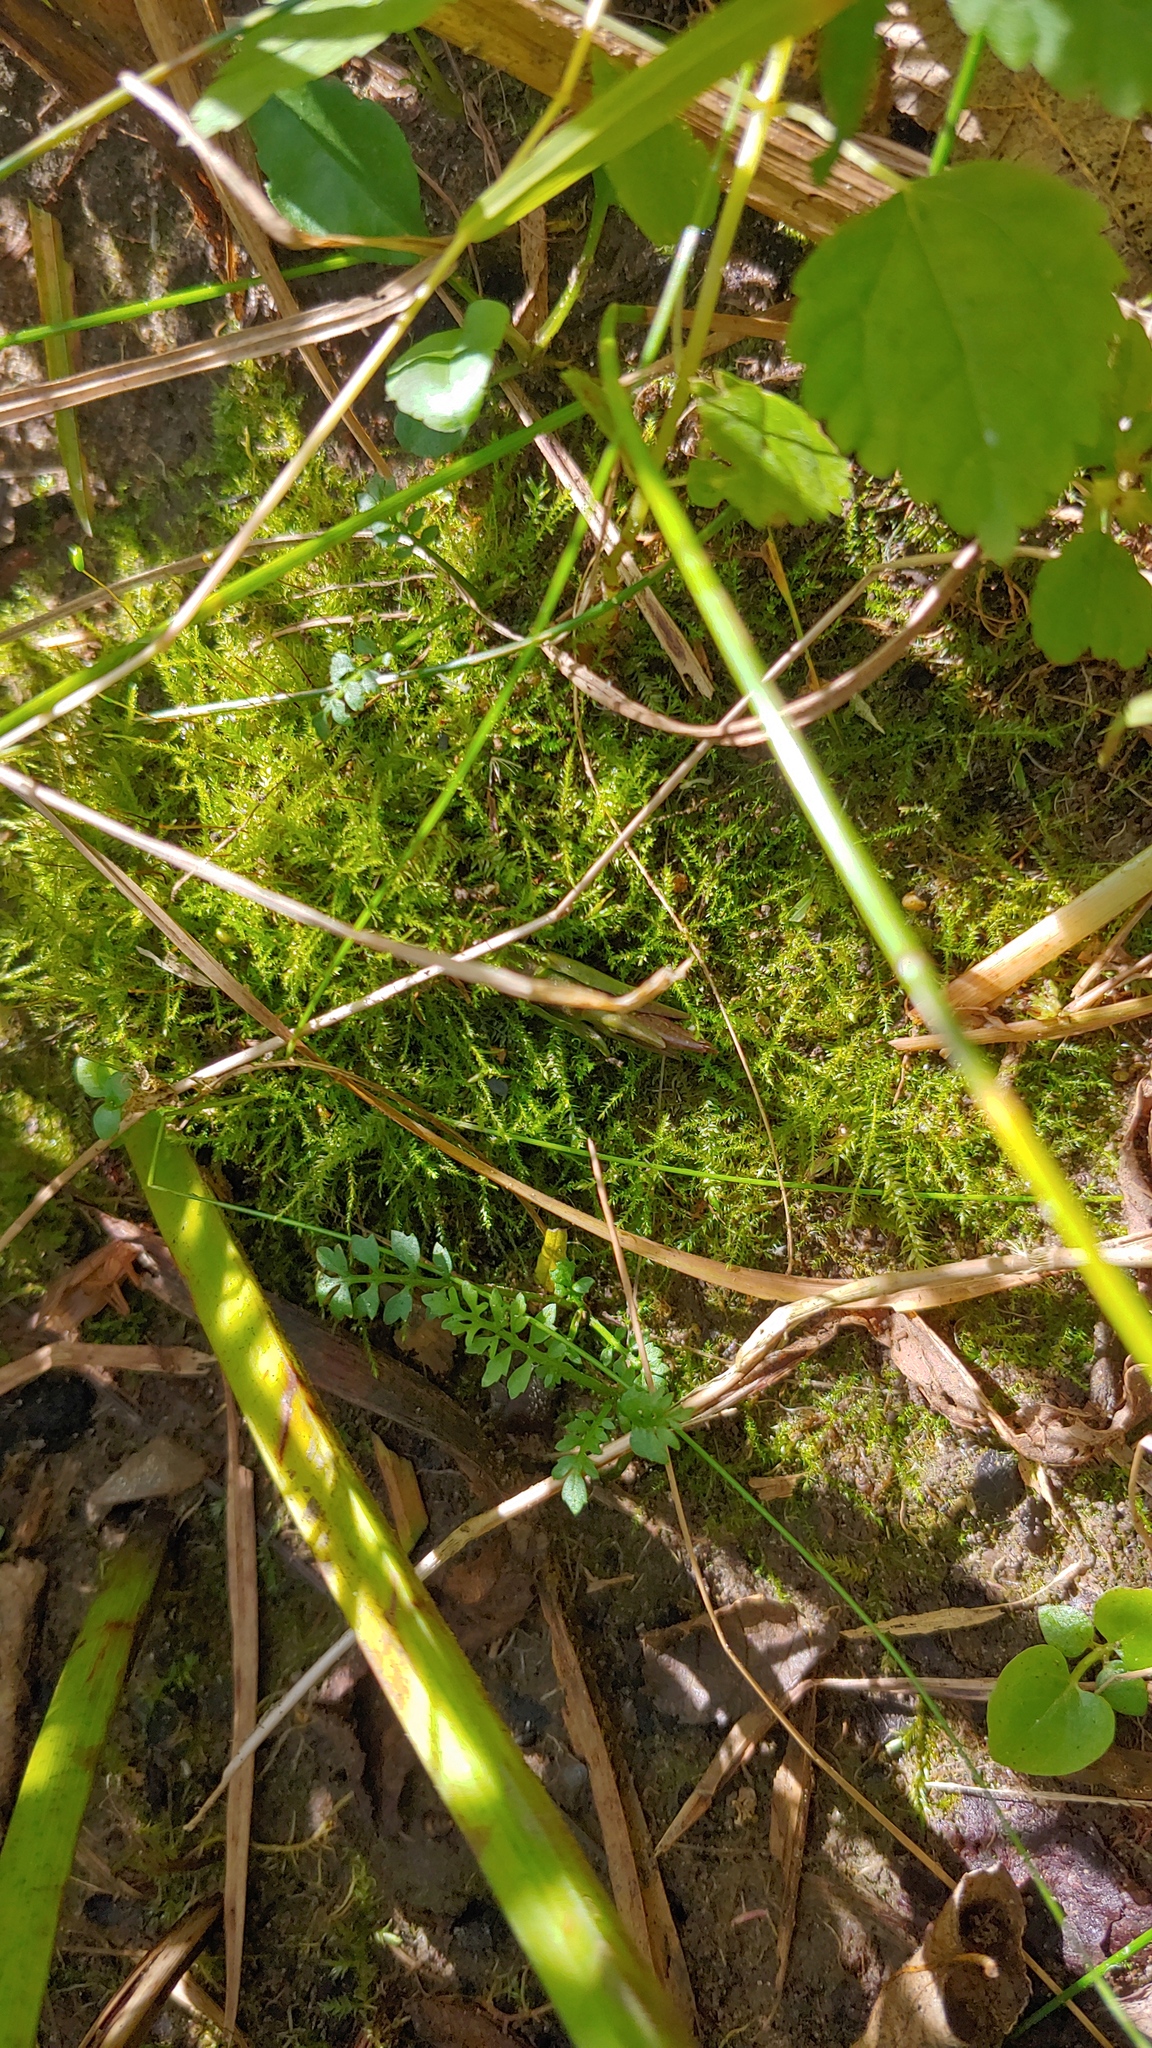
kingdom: Plantae
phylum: Tracheophyta
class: Magnoliopsida
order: Brassicales
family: Brassicaceae
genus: Cardamine
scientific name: Cardamine pensylvanica
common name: Pennsylvania bittercress
